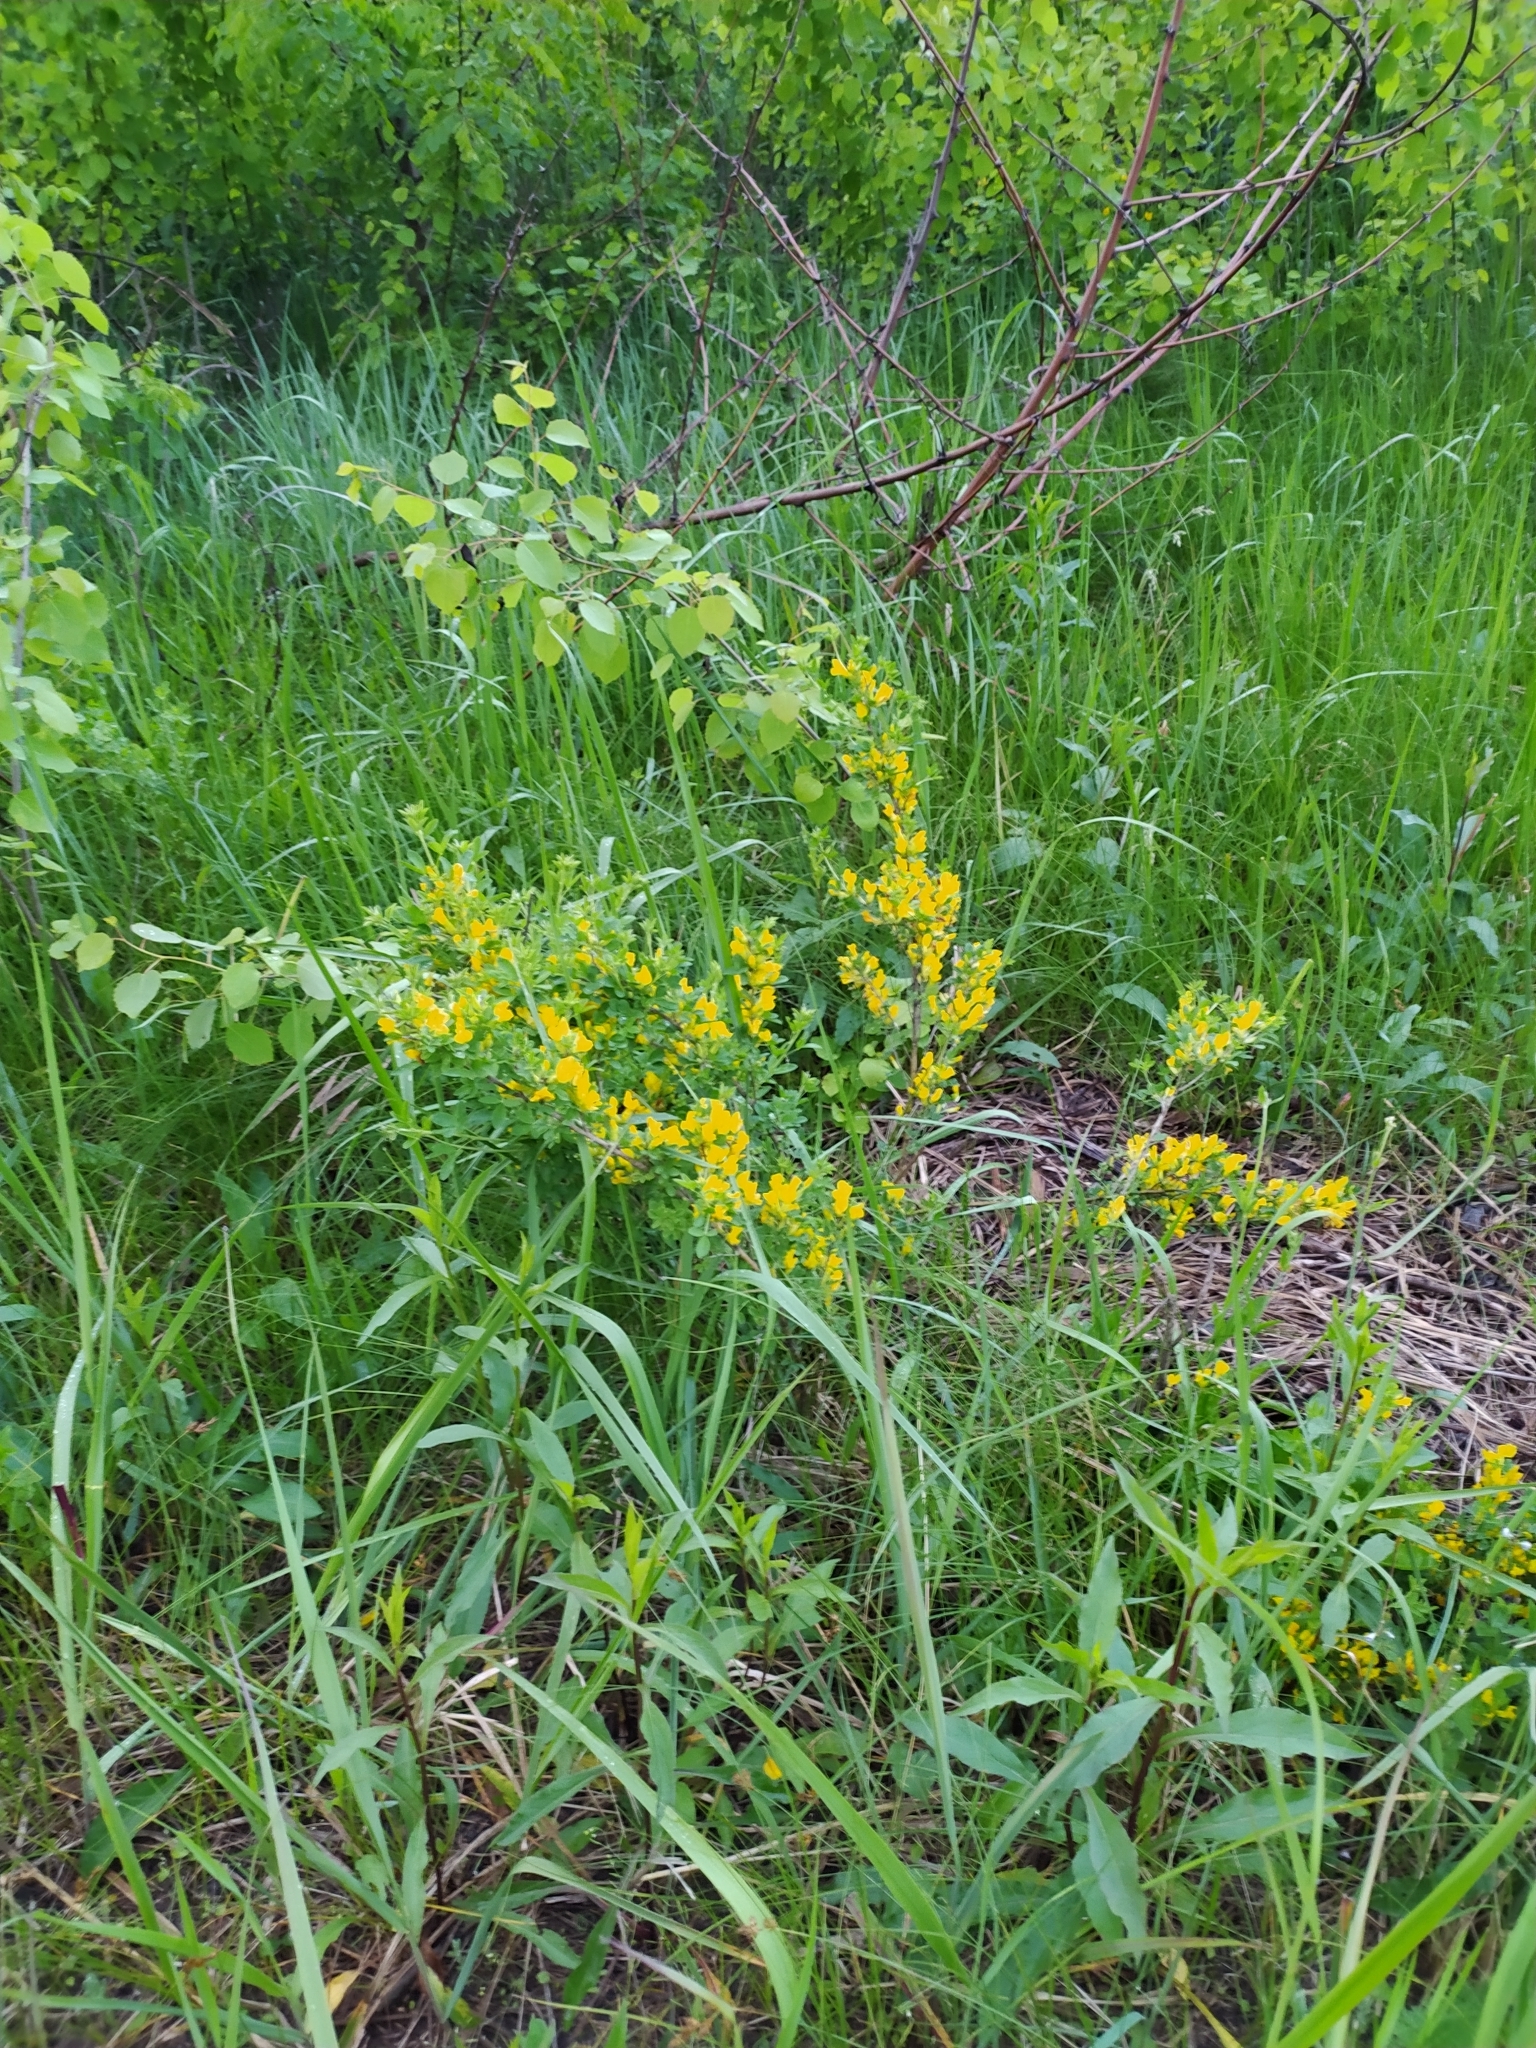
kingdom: Plantae
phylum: Tracheophyta
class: Magnoliopsida
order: Fabales
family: Fabaceae
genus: Chamaecytisus
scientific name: Chamaecytisus ruthenicus
